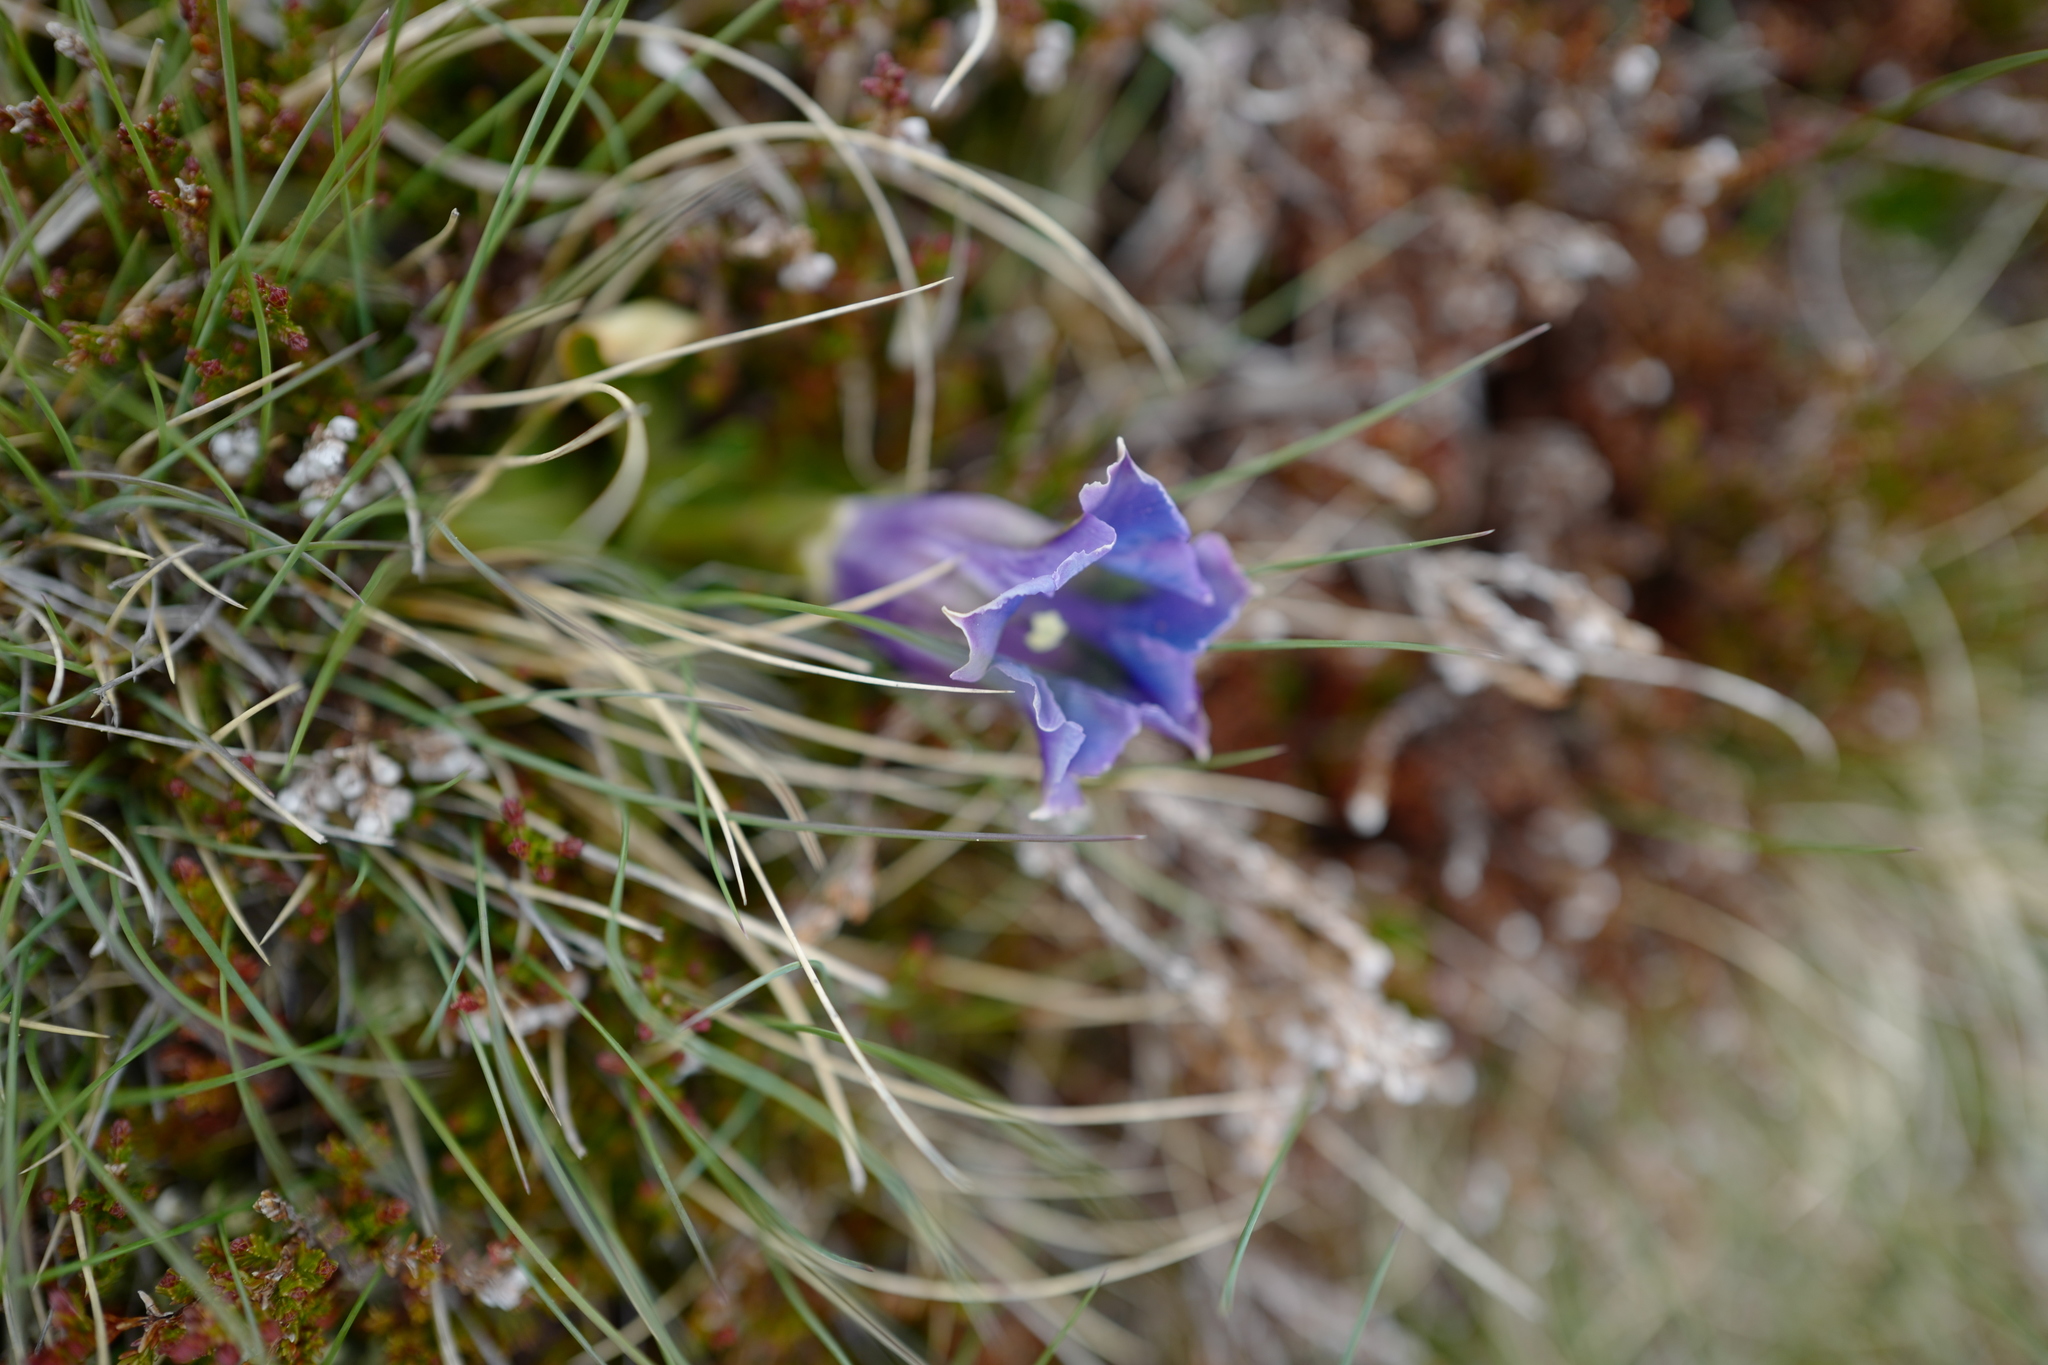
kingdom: Plantae
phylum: Tracheophyta
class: Magnoliopsida
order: Gentianales
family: Gentianaceae
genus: Gentiana
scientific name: Gentiana acaulis
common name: Trumpet gentian
